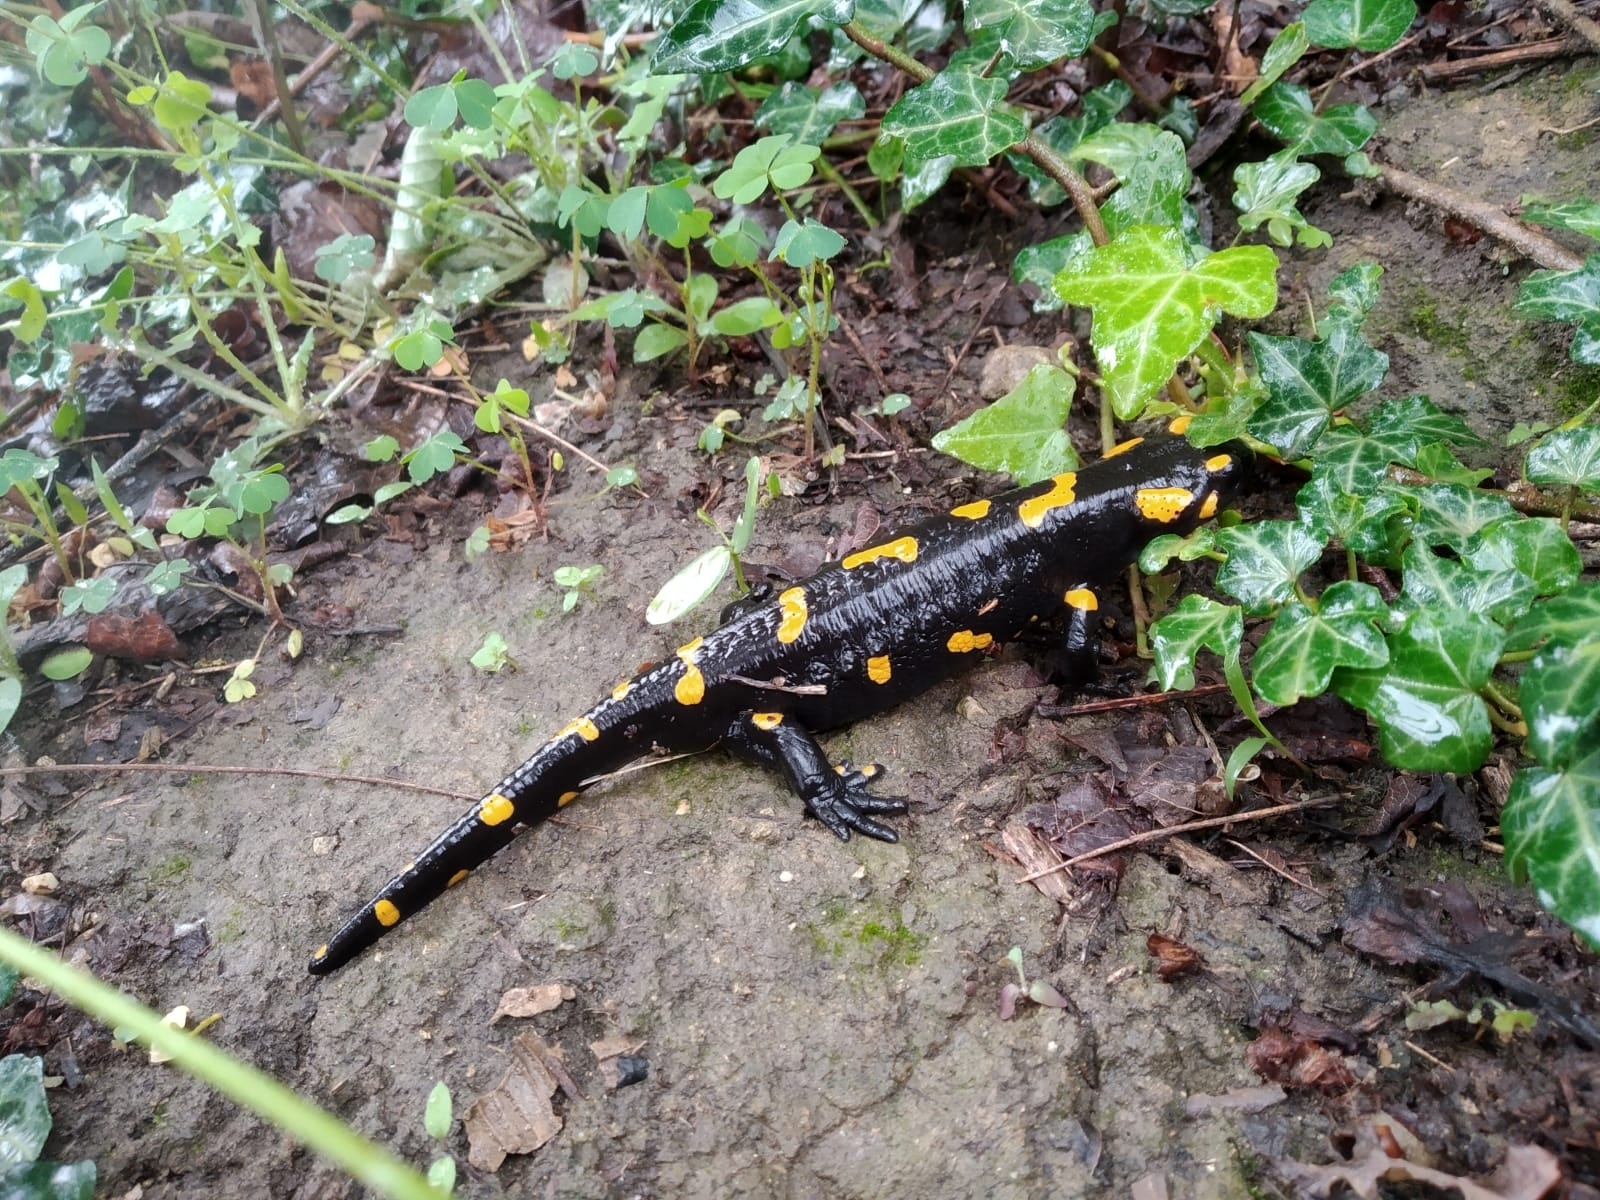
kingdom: Animalia
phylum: Chordata
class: Amphibia
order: Caudata
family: Salamandridae
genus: Salamandra
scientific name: Salamandra salamandra
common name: Fire salamander
